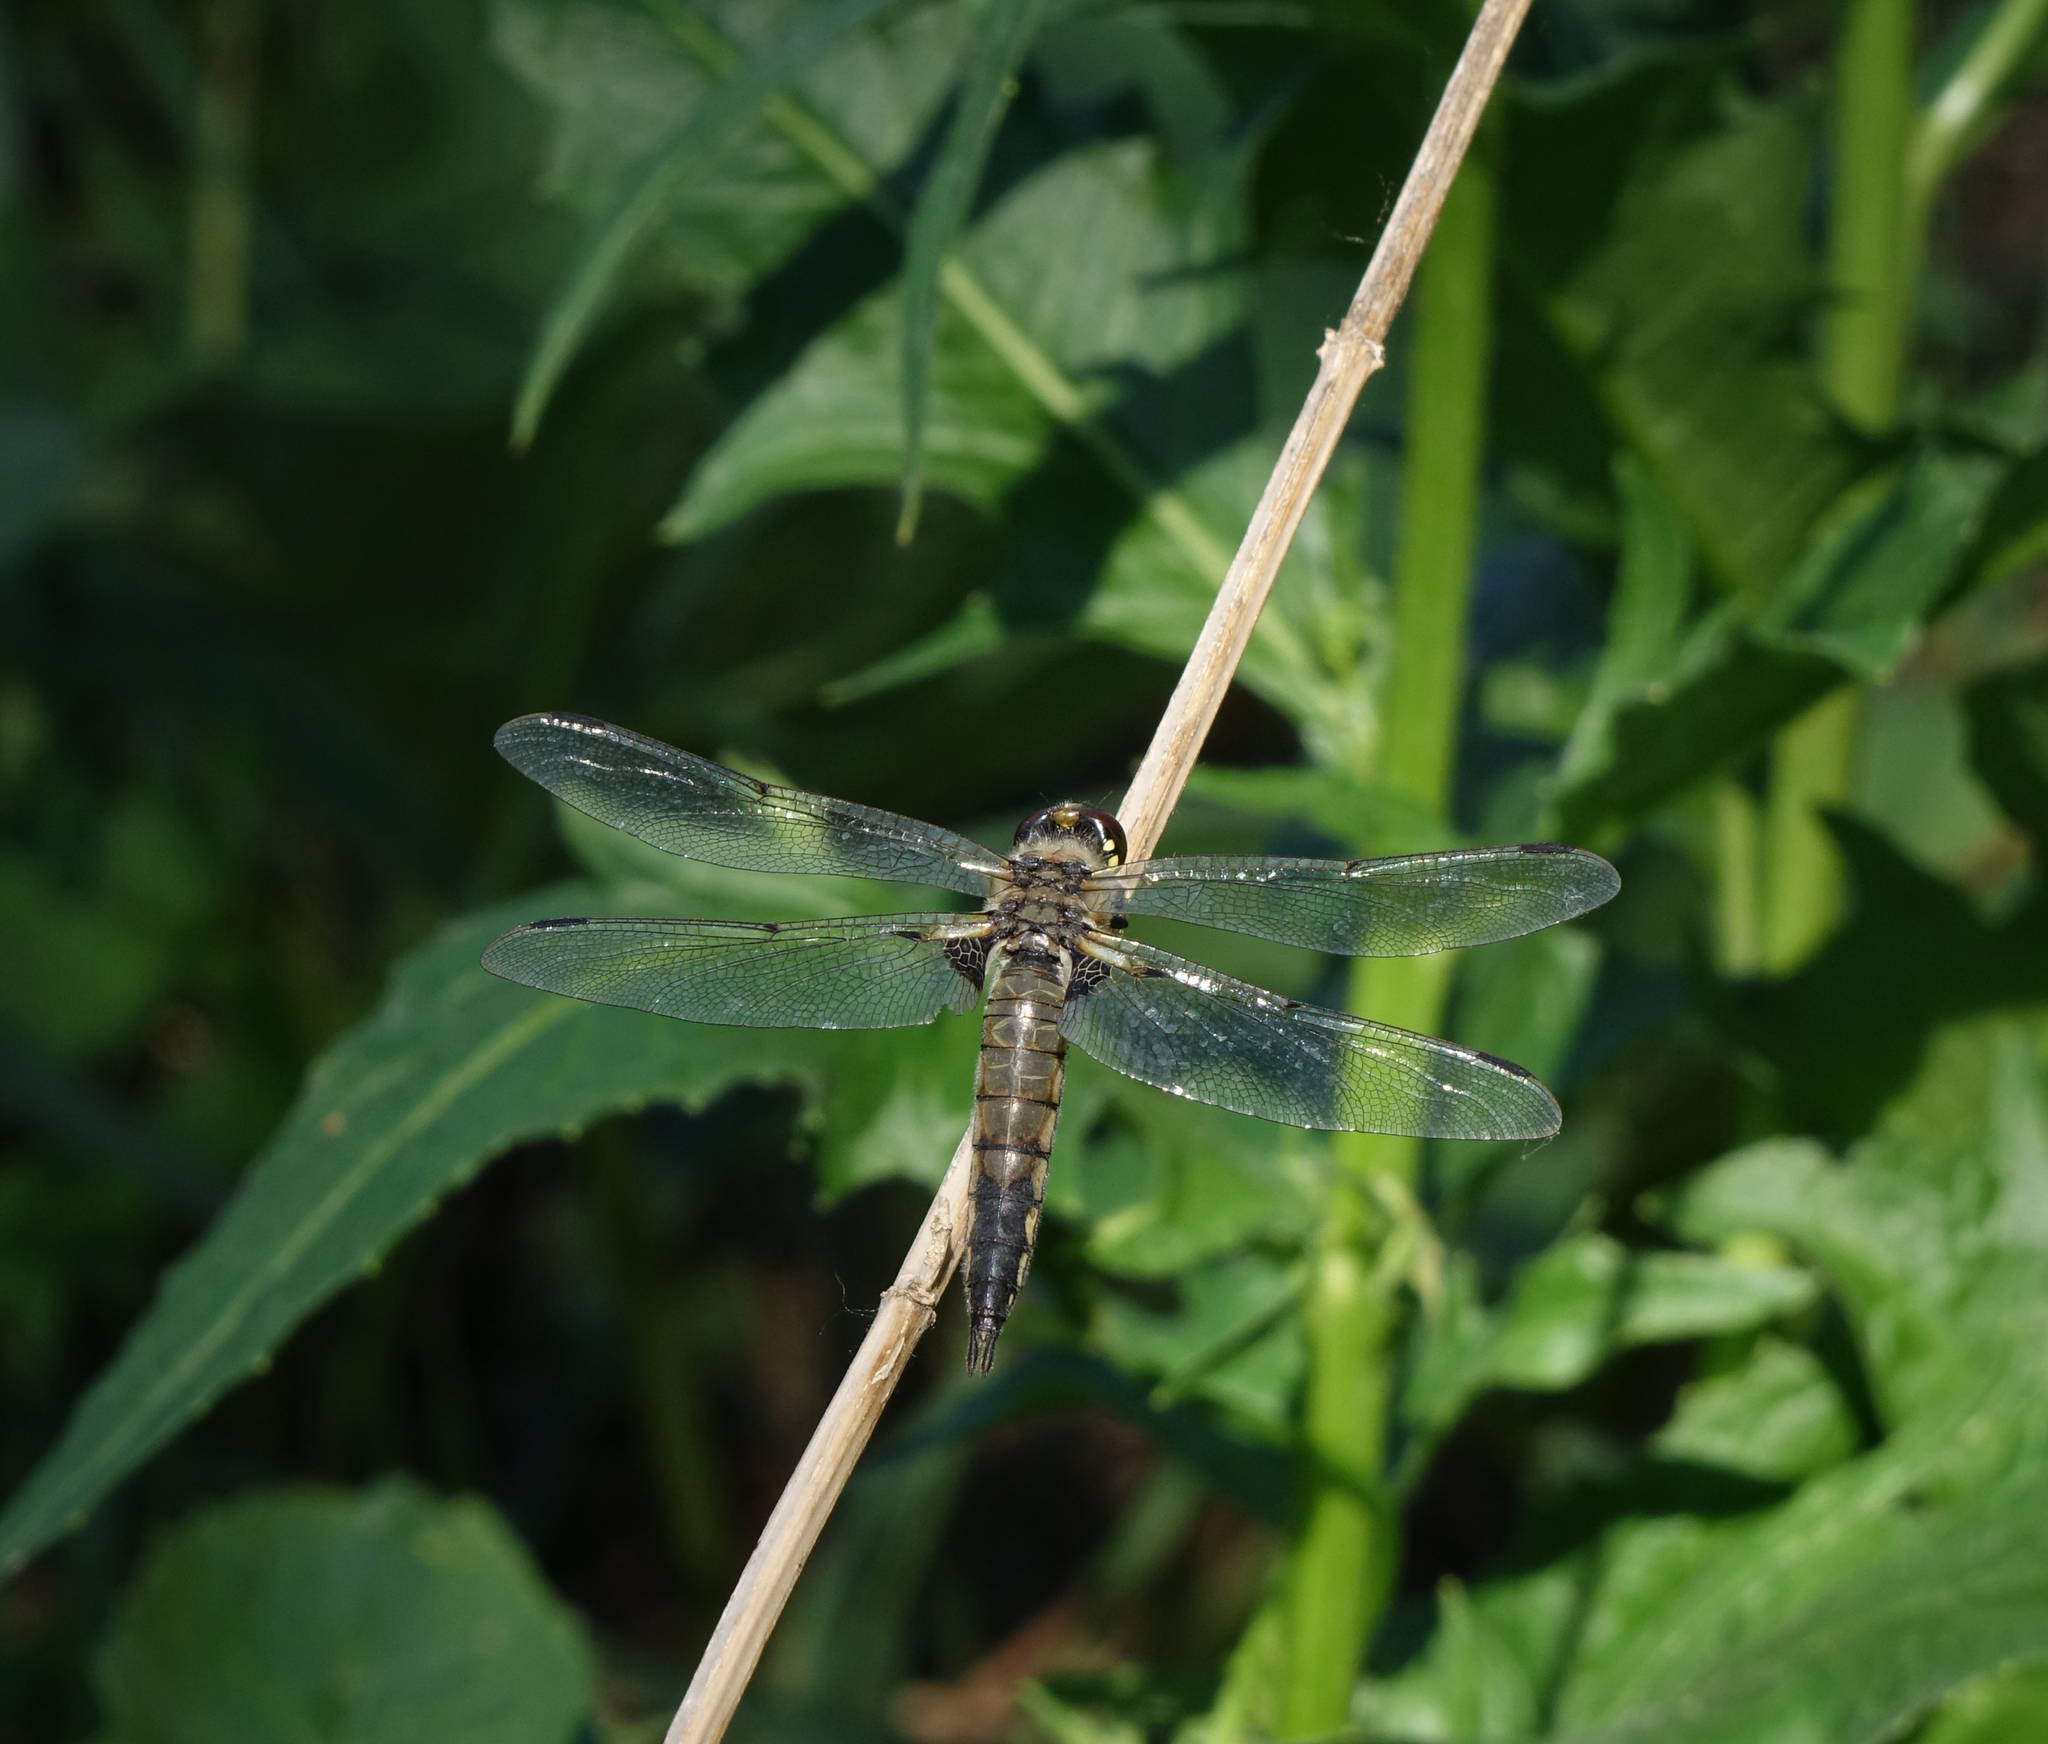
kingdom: Animalia
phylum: Arthropoda
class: Insecta
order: Odonata
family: Libellulidae
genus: Libellula
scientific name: Libellula quadrimaculata
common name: Four-spotted chaser
